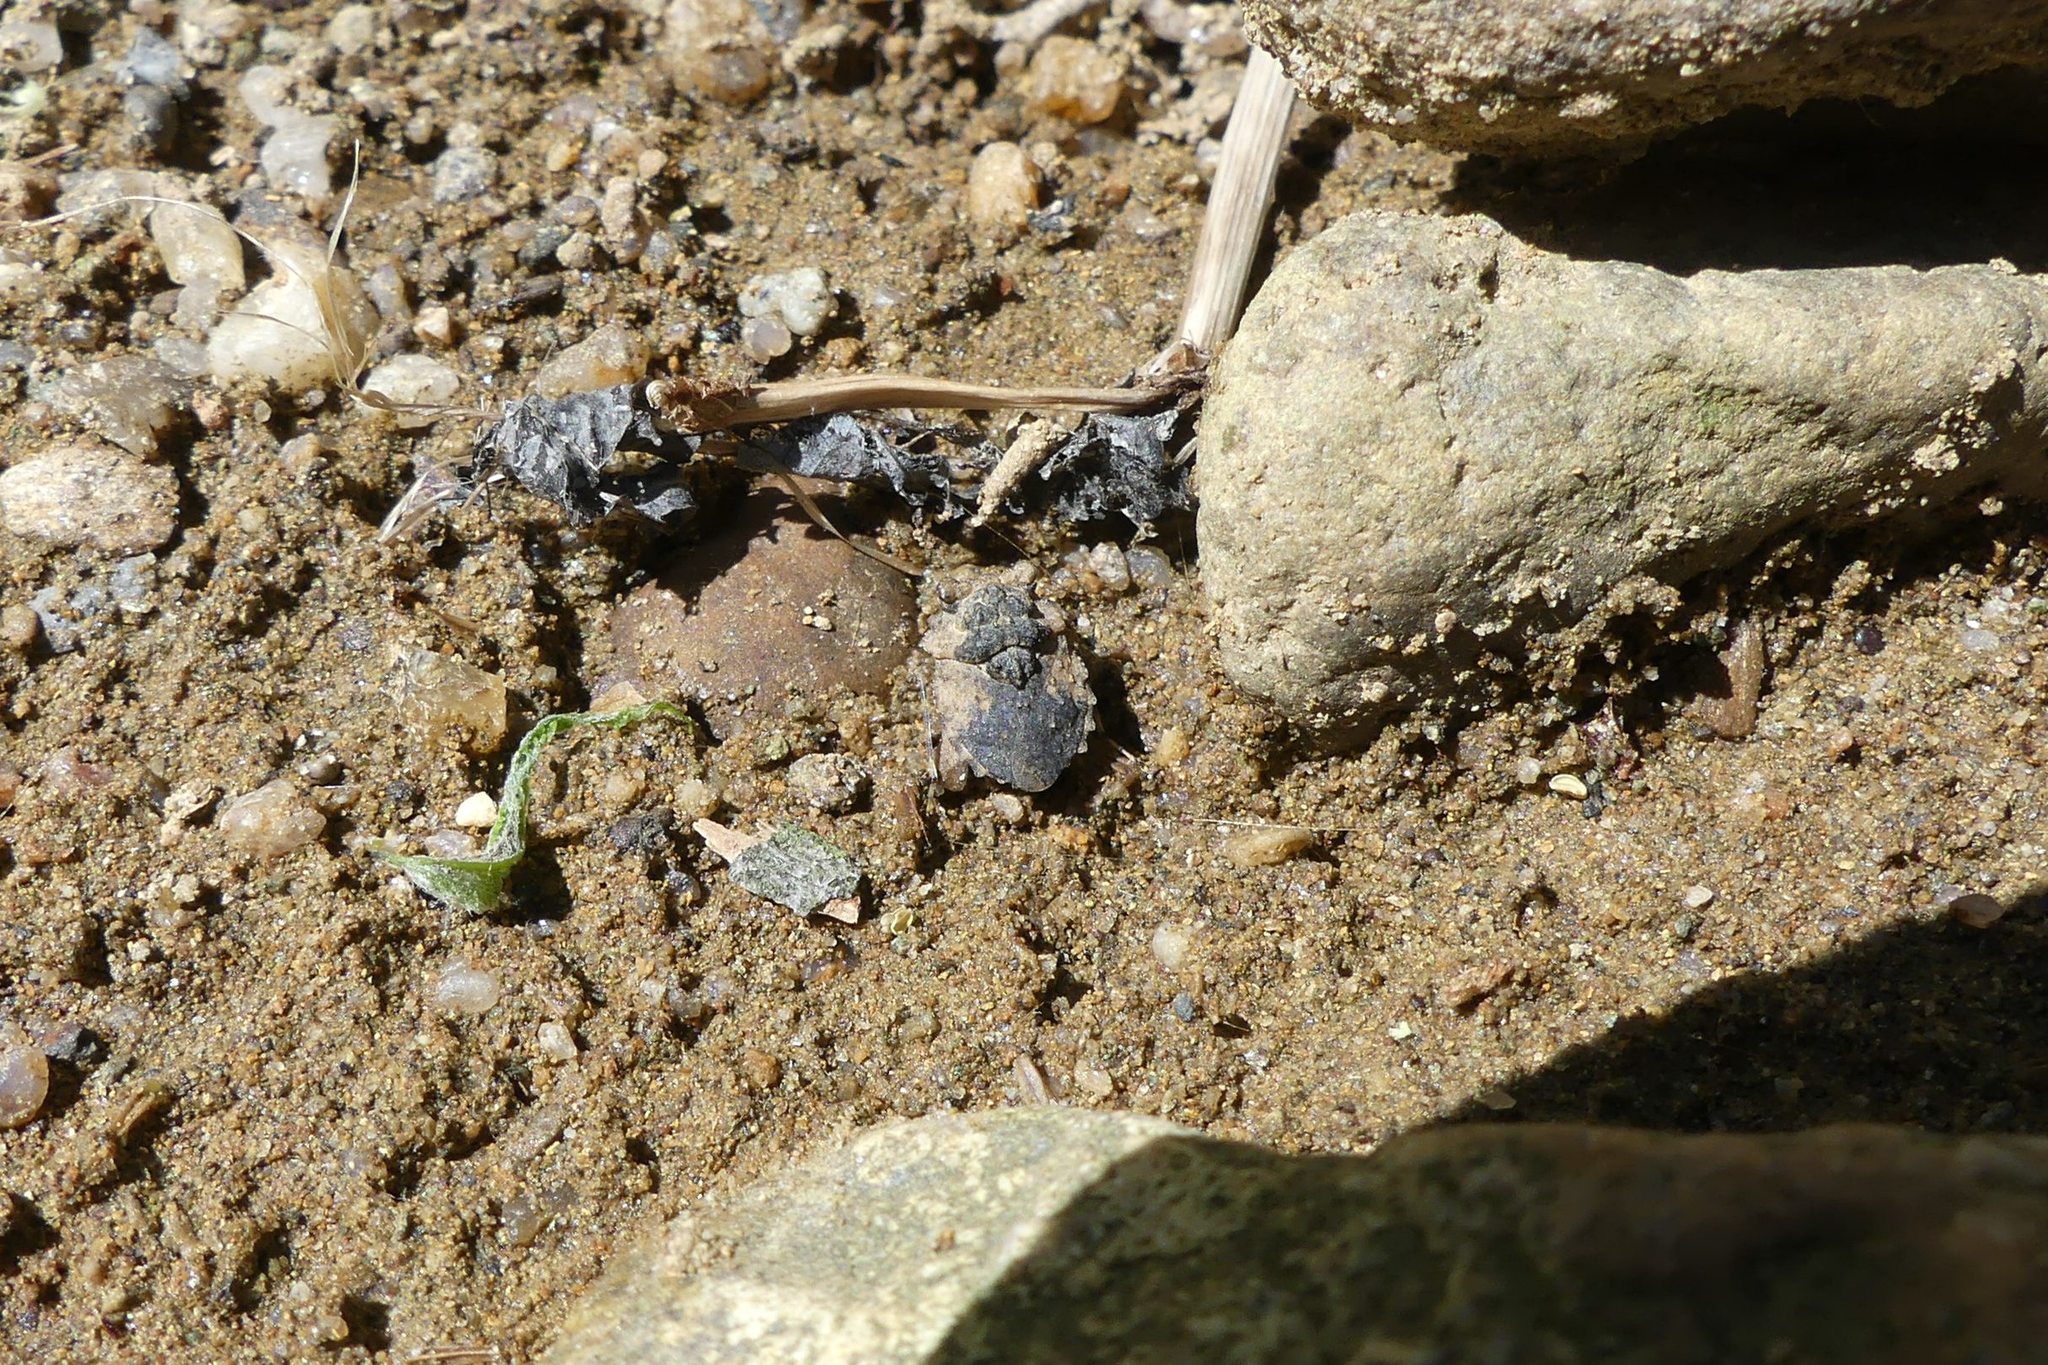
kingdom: Animalia
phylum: Arthropoda
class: Insecta
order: Hemiptera
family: Gelastocoridae
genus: Gelastocoris
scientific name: Gelastocoris oculatus
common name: Toad bug
